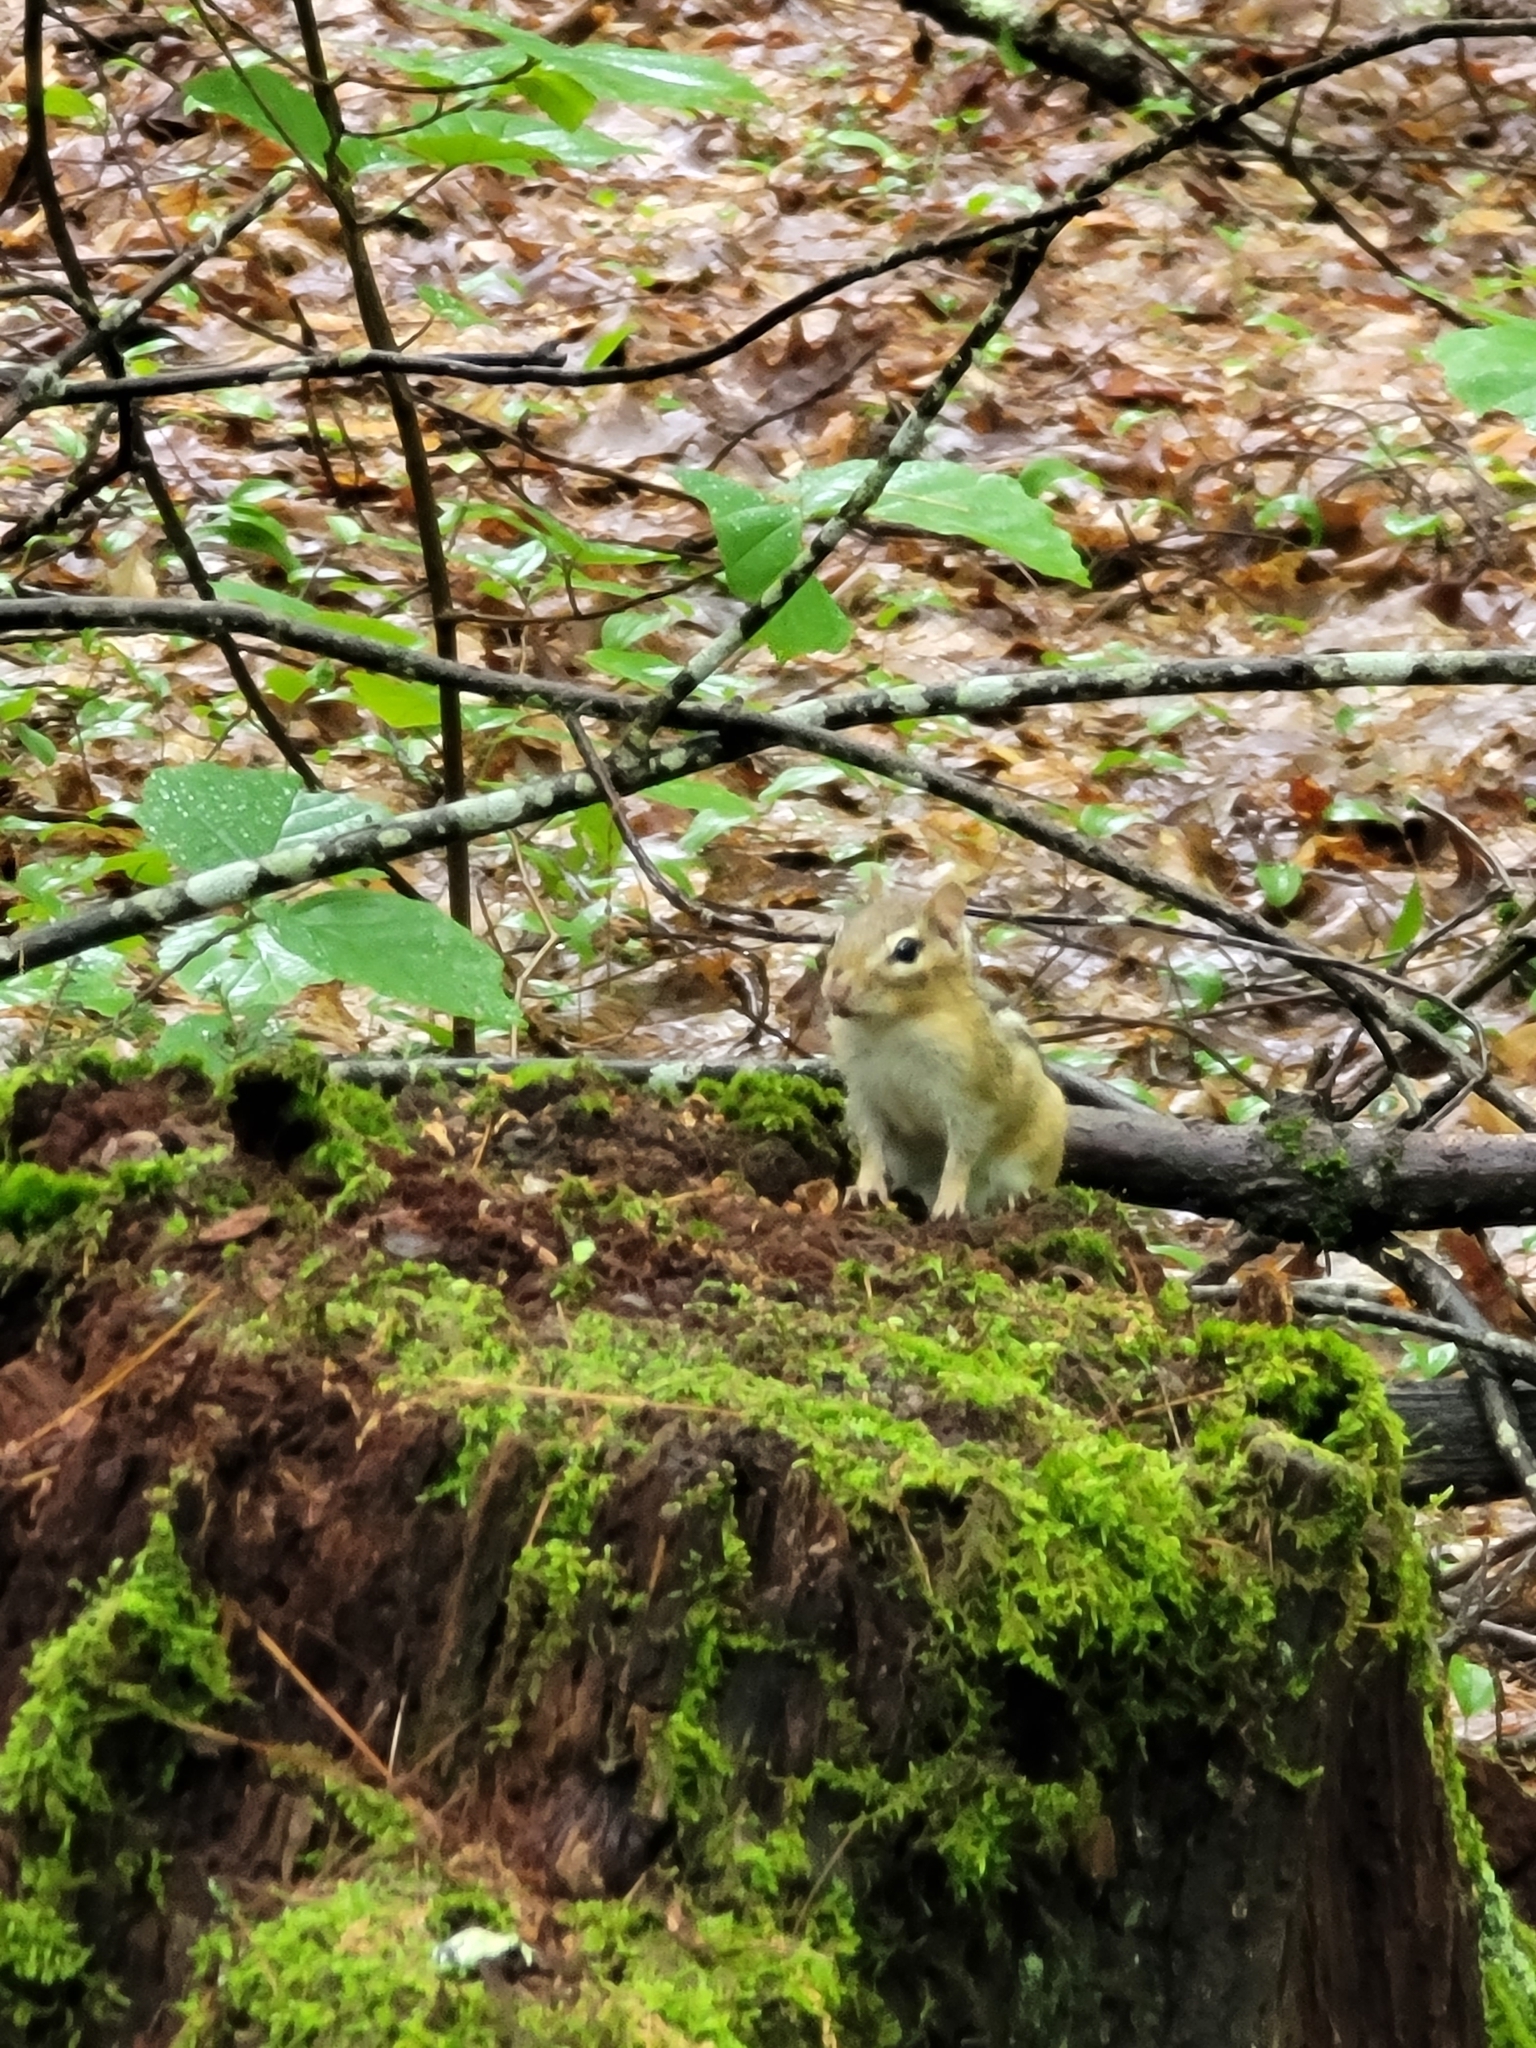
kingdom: Animalia
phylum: Chordata
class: Mammalia
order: Rodentia
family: Sciuridae
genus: Tamias
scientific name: Tamias striatus
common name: Eastern chipmunk
